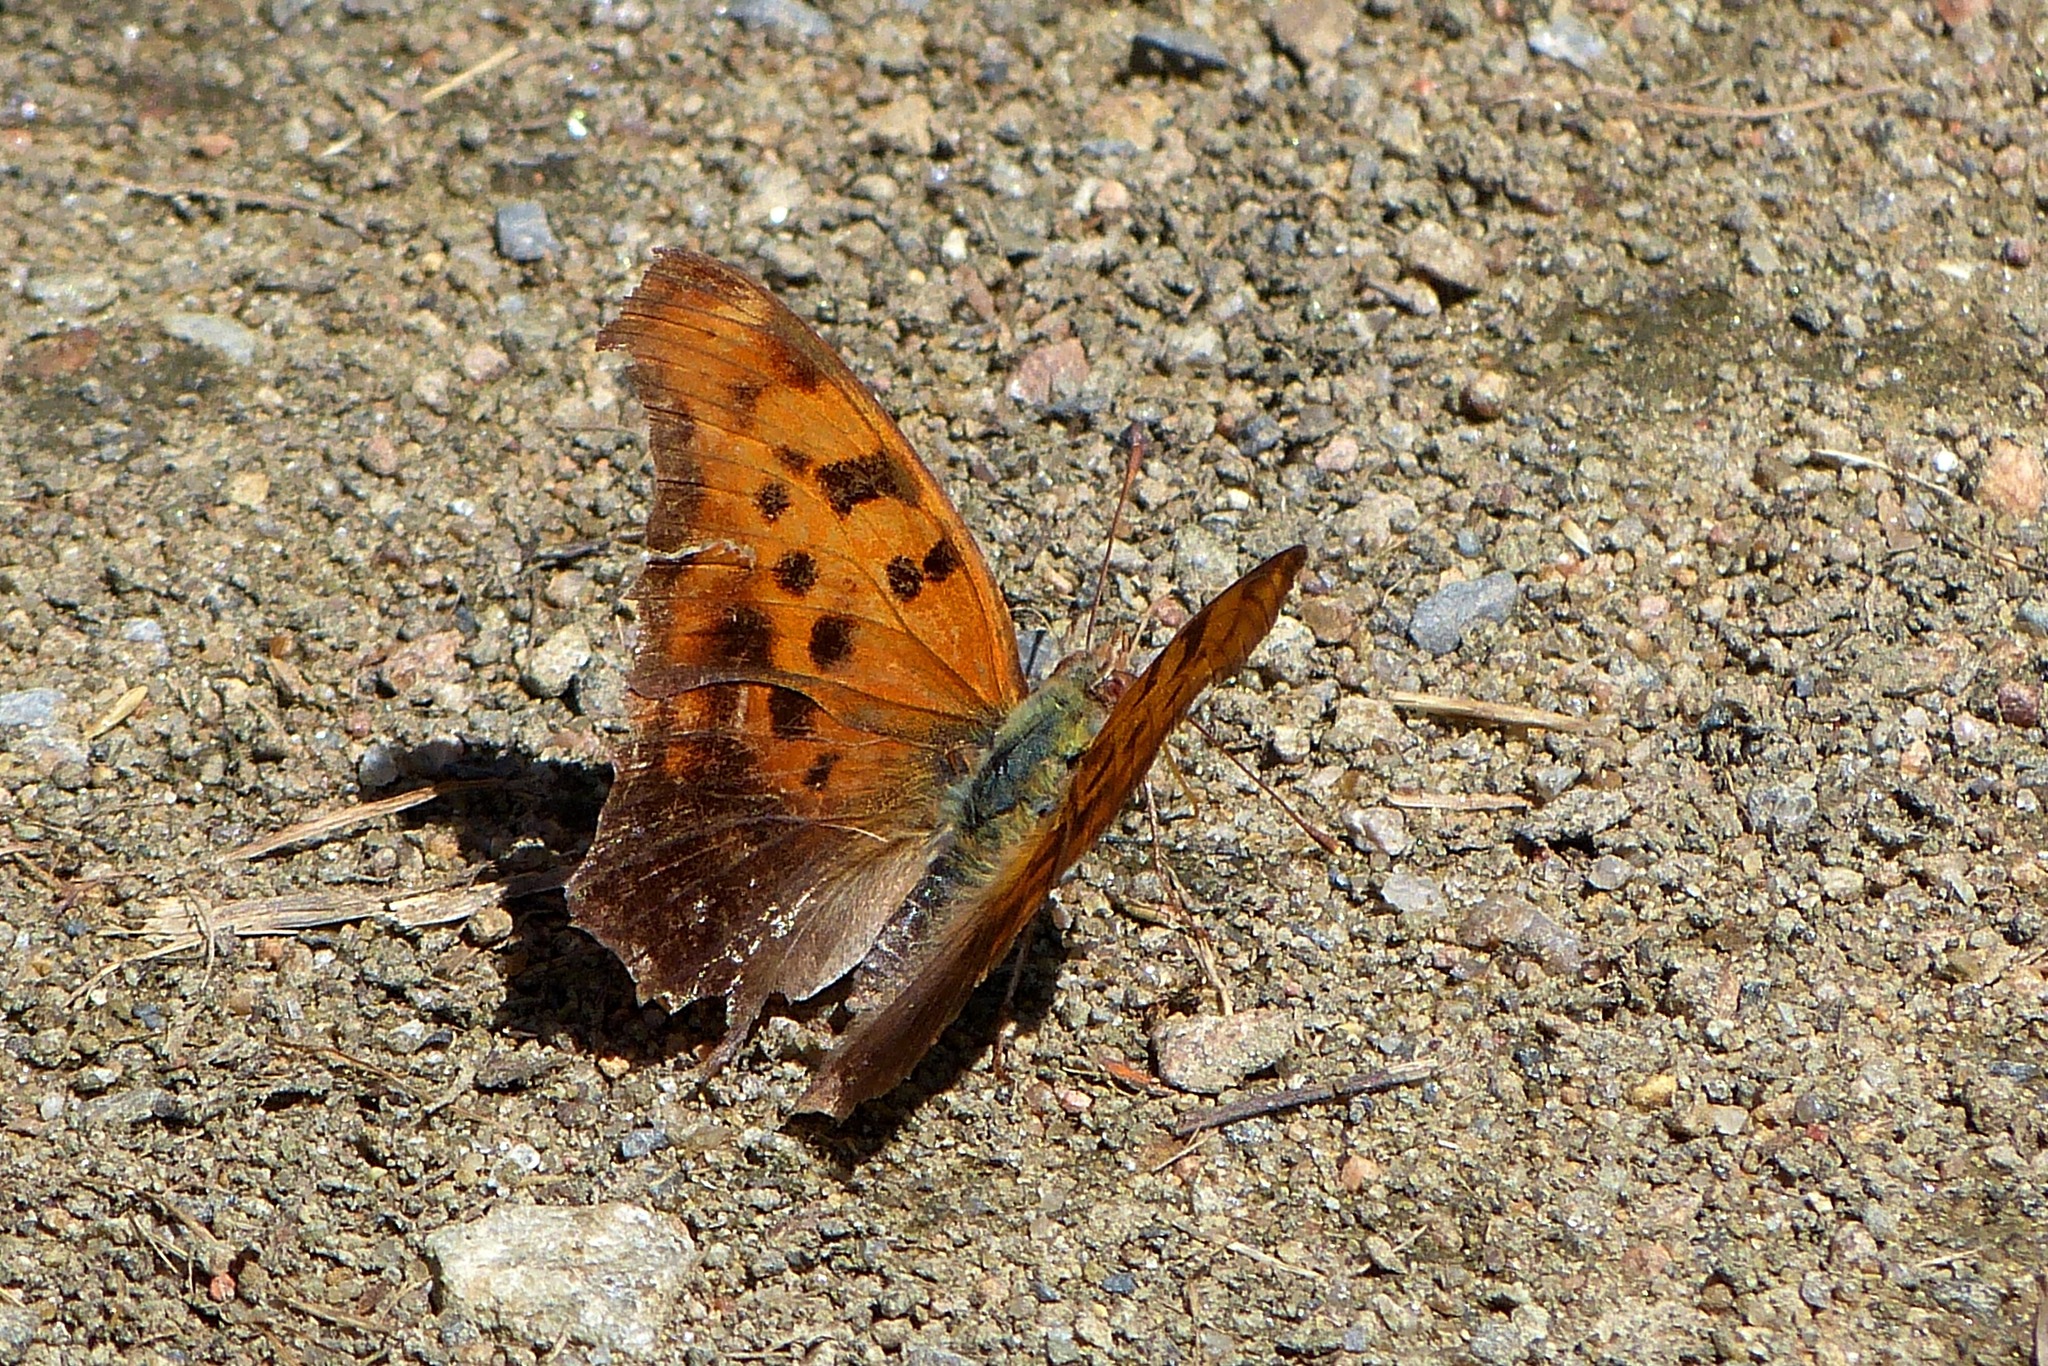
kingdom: Animalia
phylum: Arthropoda
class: Insecta
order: Lepidoptera
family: Nymphalidae
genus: Polygonia
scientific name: Polygonia interrogationis
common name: Question mark
